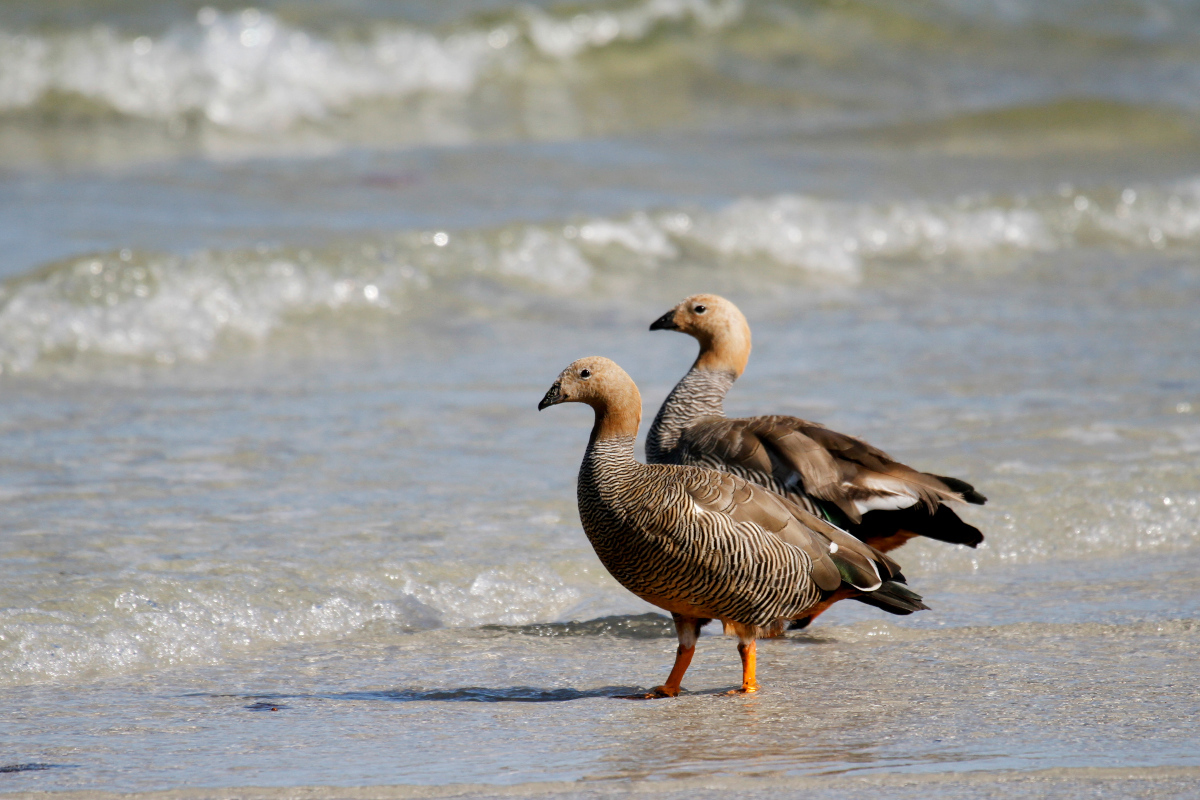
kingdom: Animalia
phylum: Chordata
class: Aves
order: Anseriformes
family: Anatidae
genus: Chloephaga
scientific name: Chloephaga rubidiceps
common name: Ruddy-headed goose
